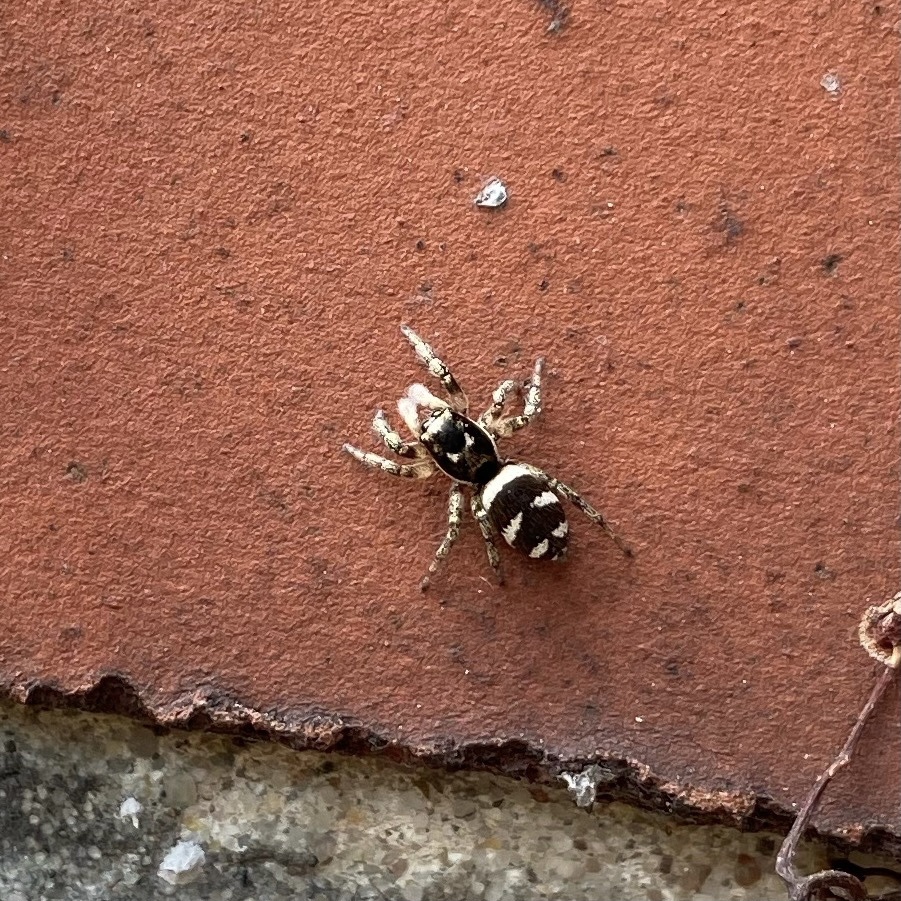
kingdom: Animalia
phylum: Arthropoda
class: Arachnida
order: Araneae
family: Salticidae
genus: Salticus
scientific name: Salticus scenicus
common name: Zebra jumper
